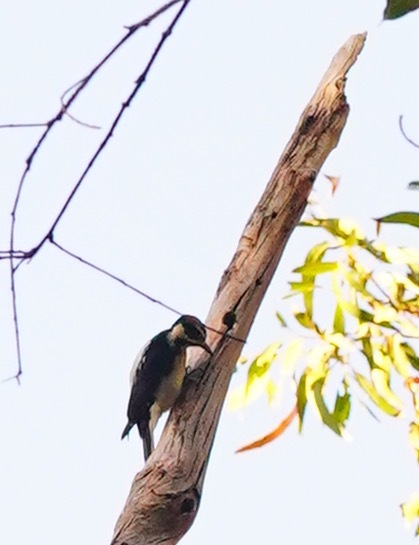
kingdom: Animalia
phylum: Chordata
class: Aves
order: Piciformes
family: Picidae
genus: Leuconotopicus
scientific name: Leuconotopicus villosus
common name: Hairy woodpecker
